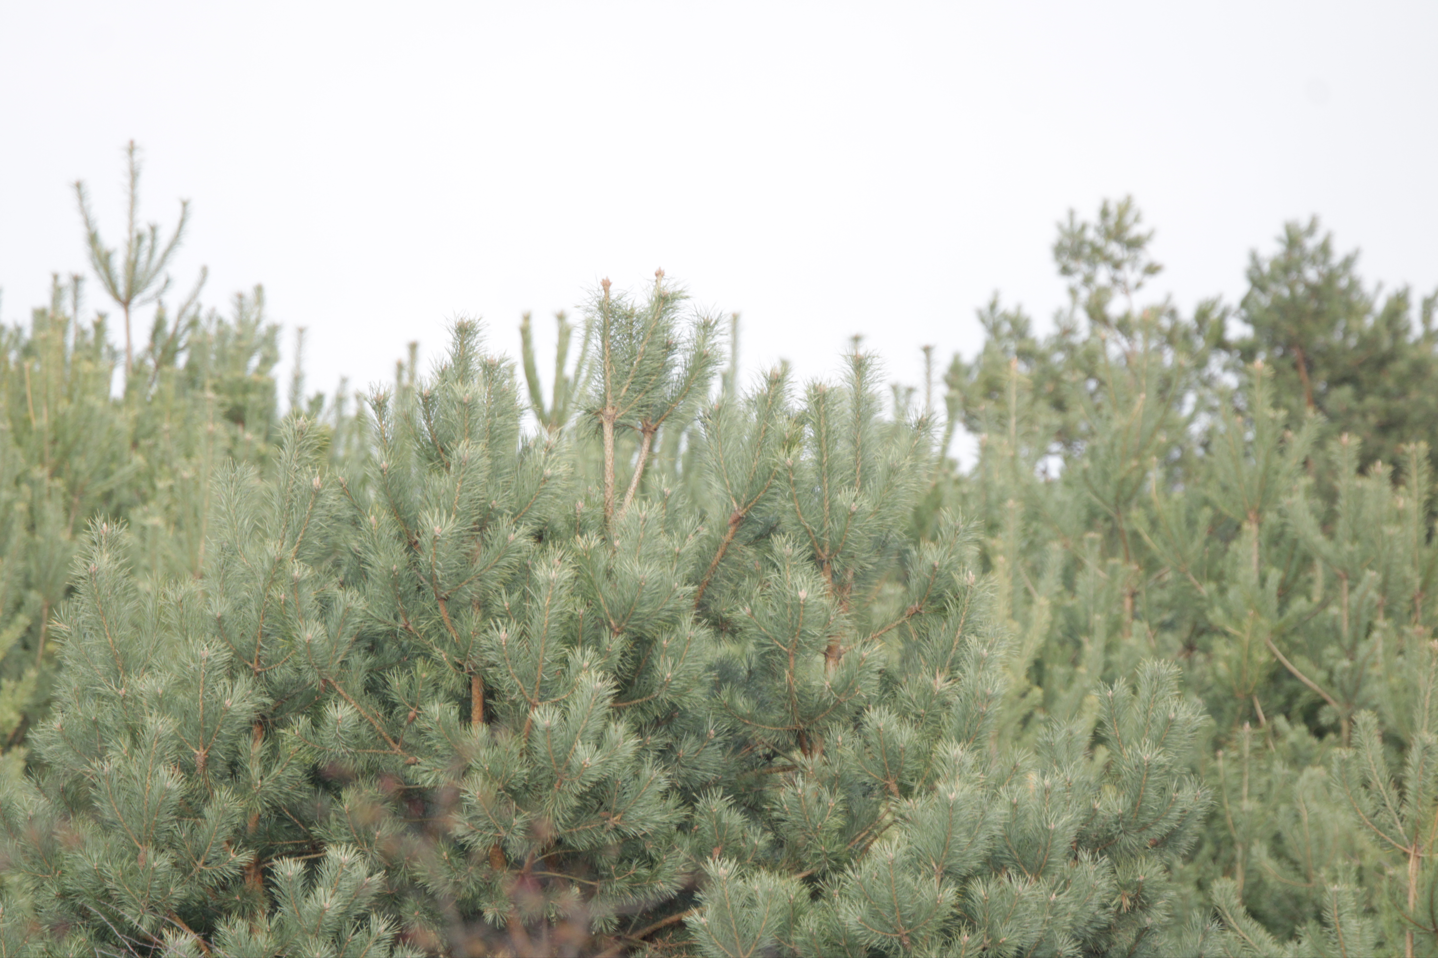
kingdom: Plantae
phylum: Tracheophyta
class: Pinopsida
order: Pinales
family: Pinaceae
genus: Pinus
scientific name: Pinus sylvestris
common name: Scots pine
